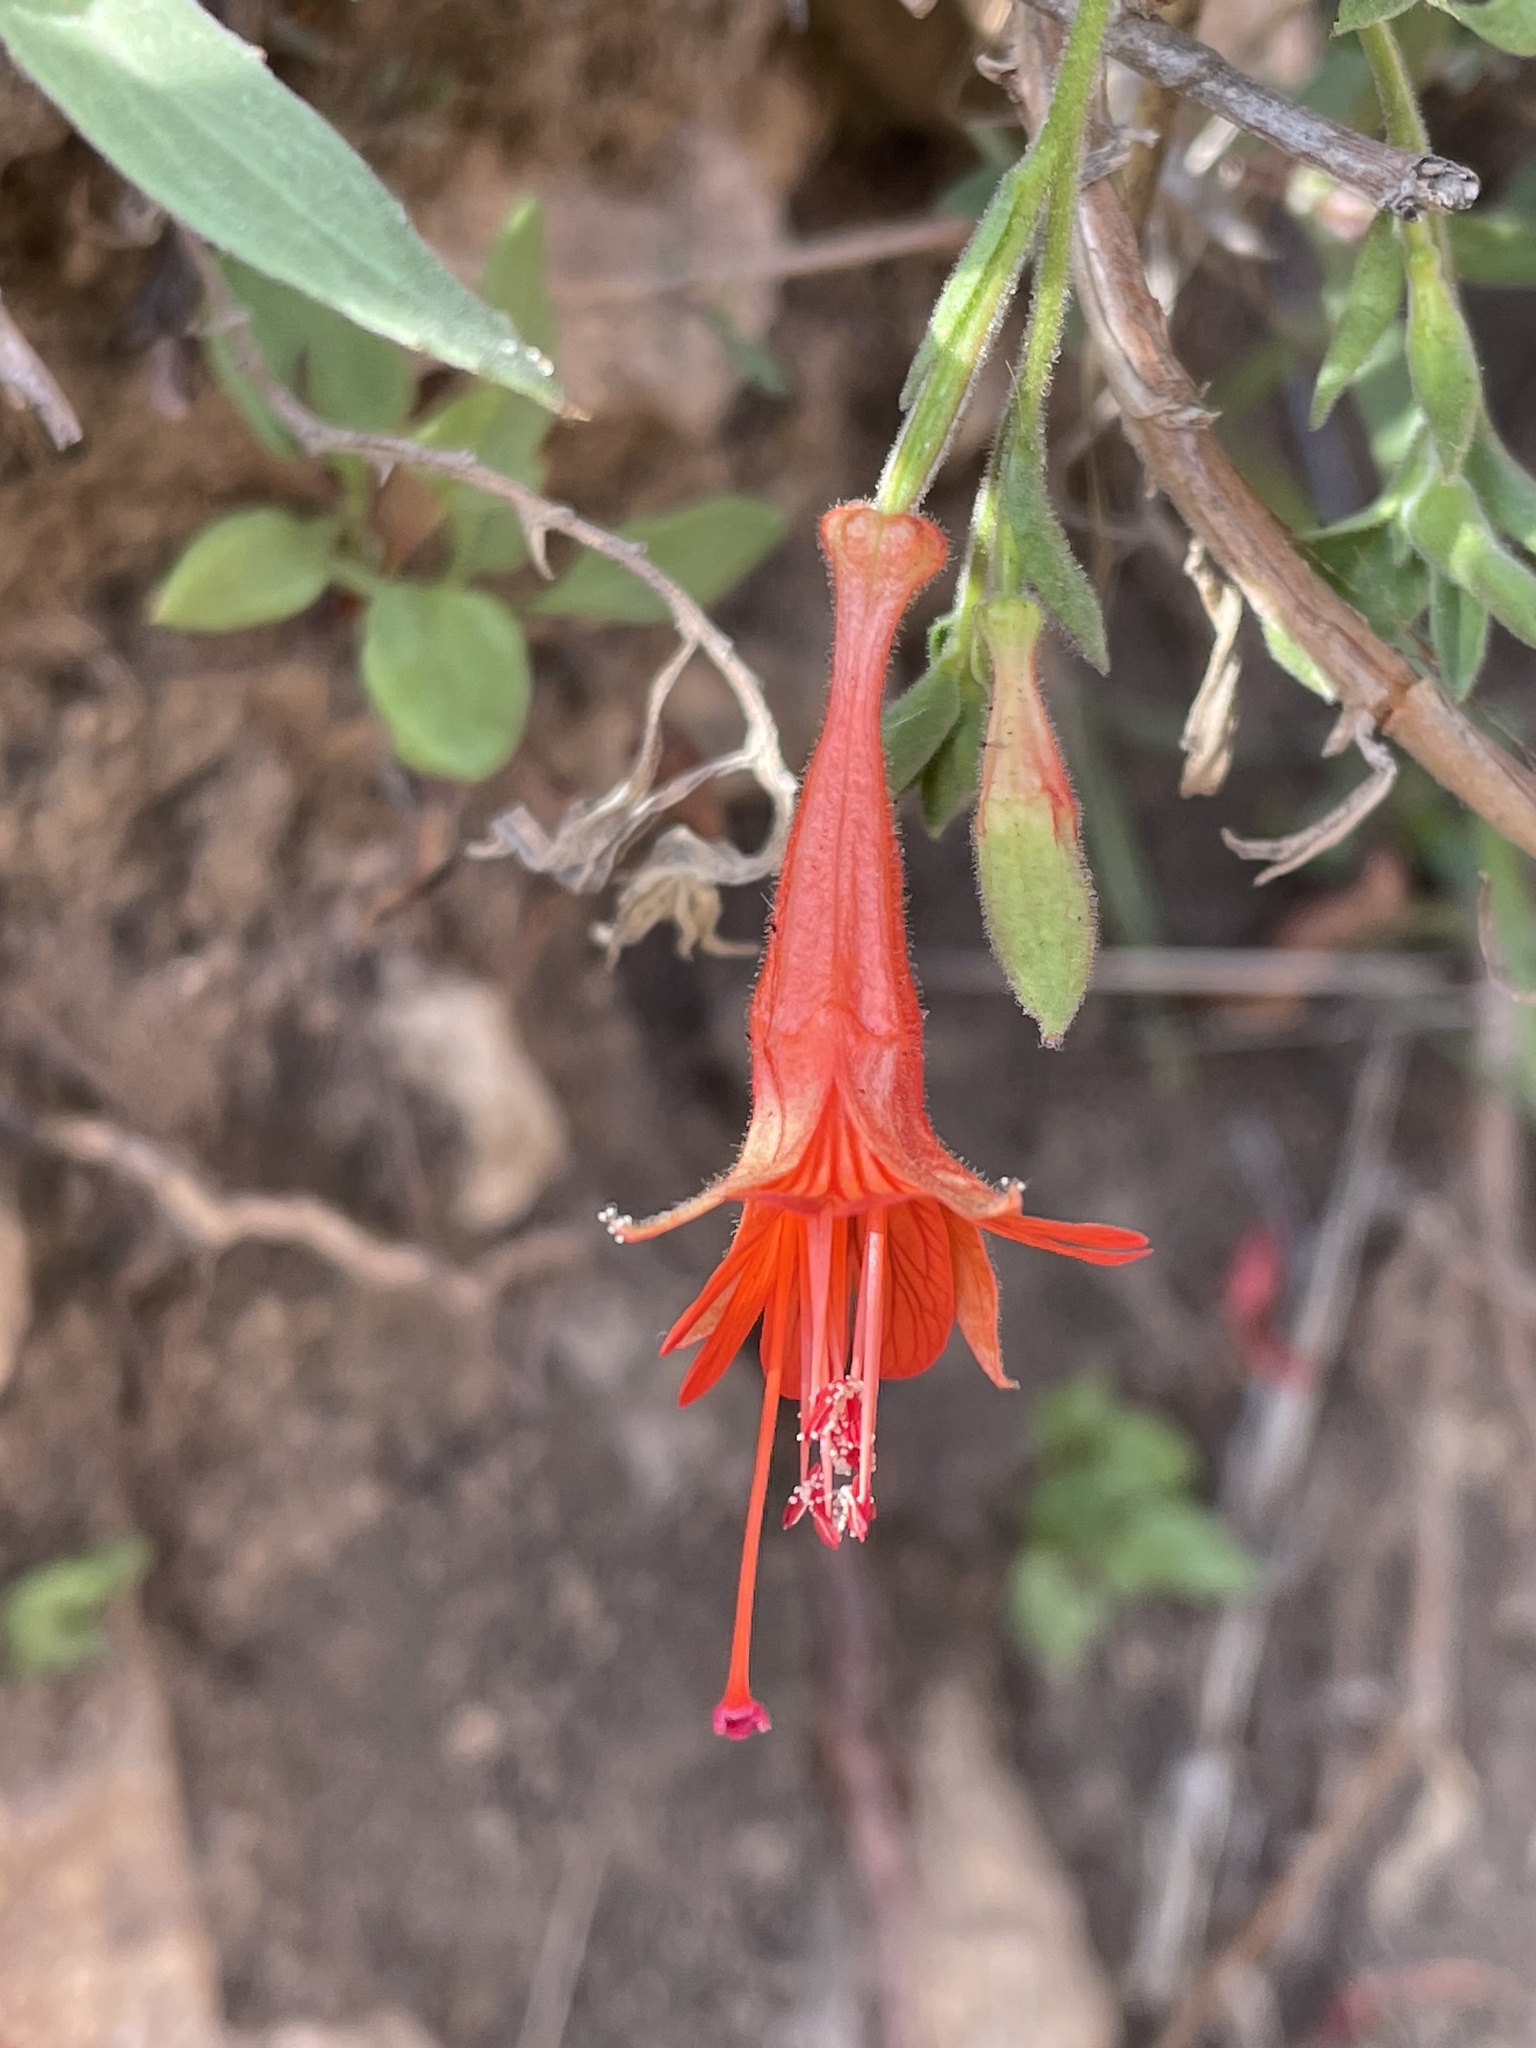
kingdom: Plantae
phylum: Tracheophyta
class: Magnoliopsida
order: Myrtales
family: Onagraceae
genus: Epilobium
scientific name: Epilobium canum
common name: California-fuchsia
